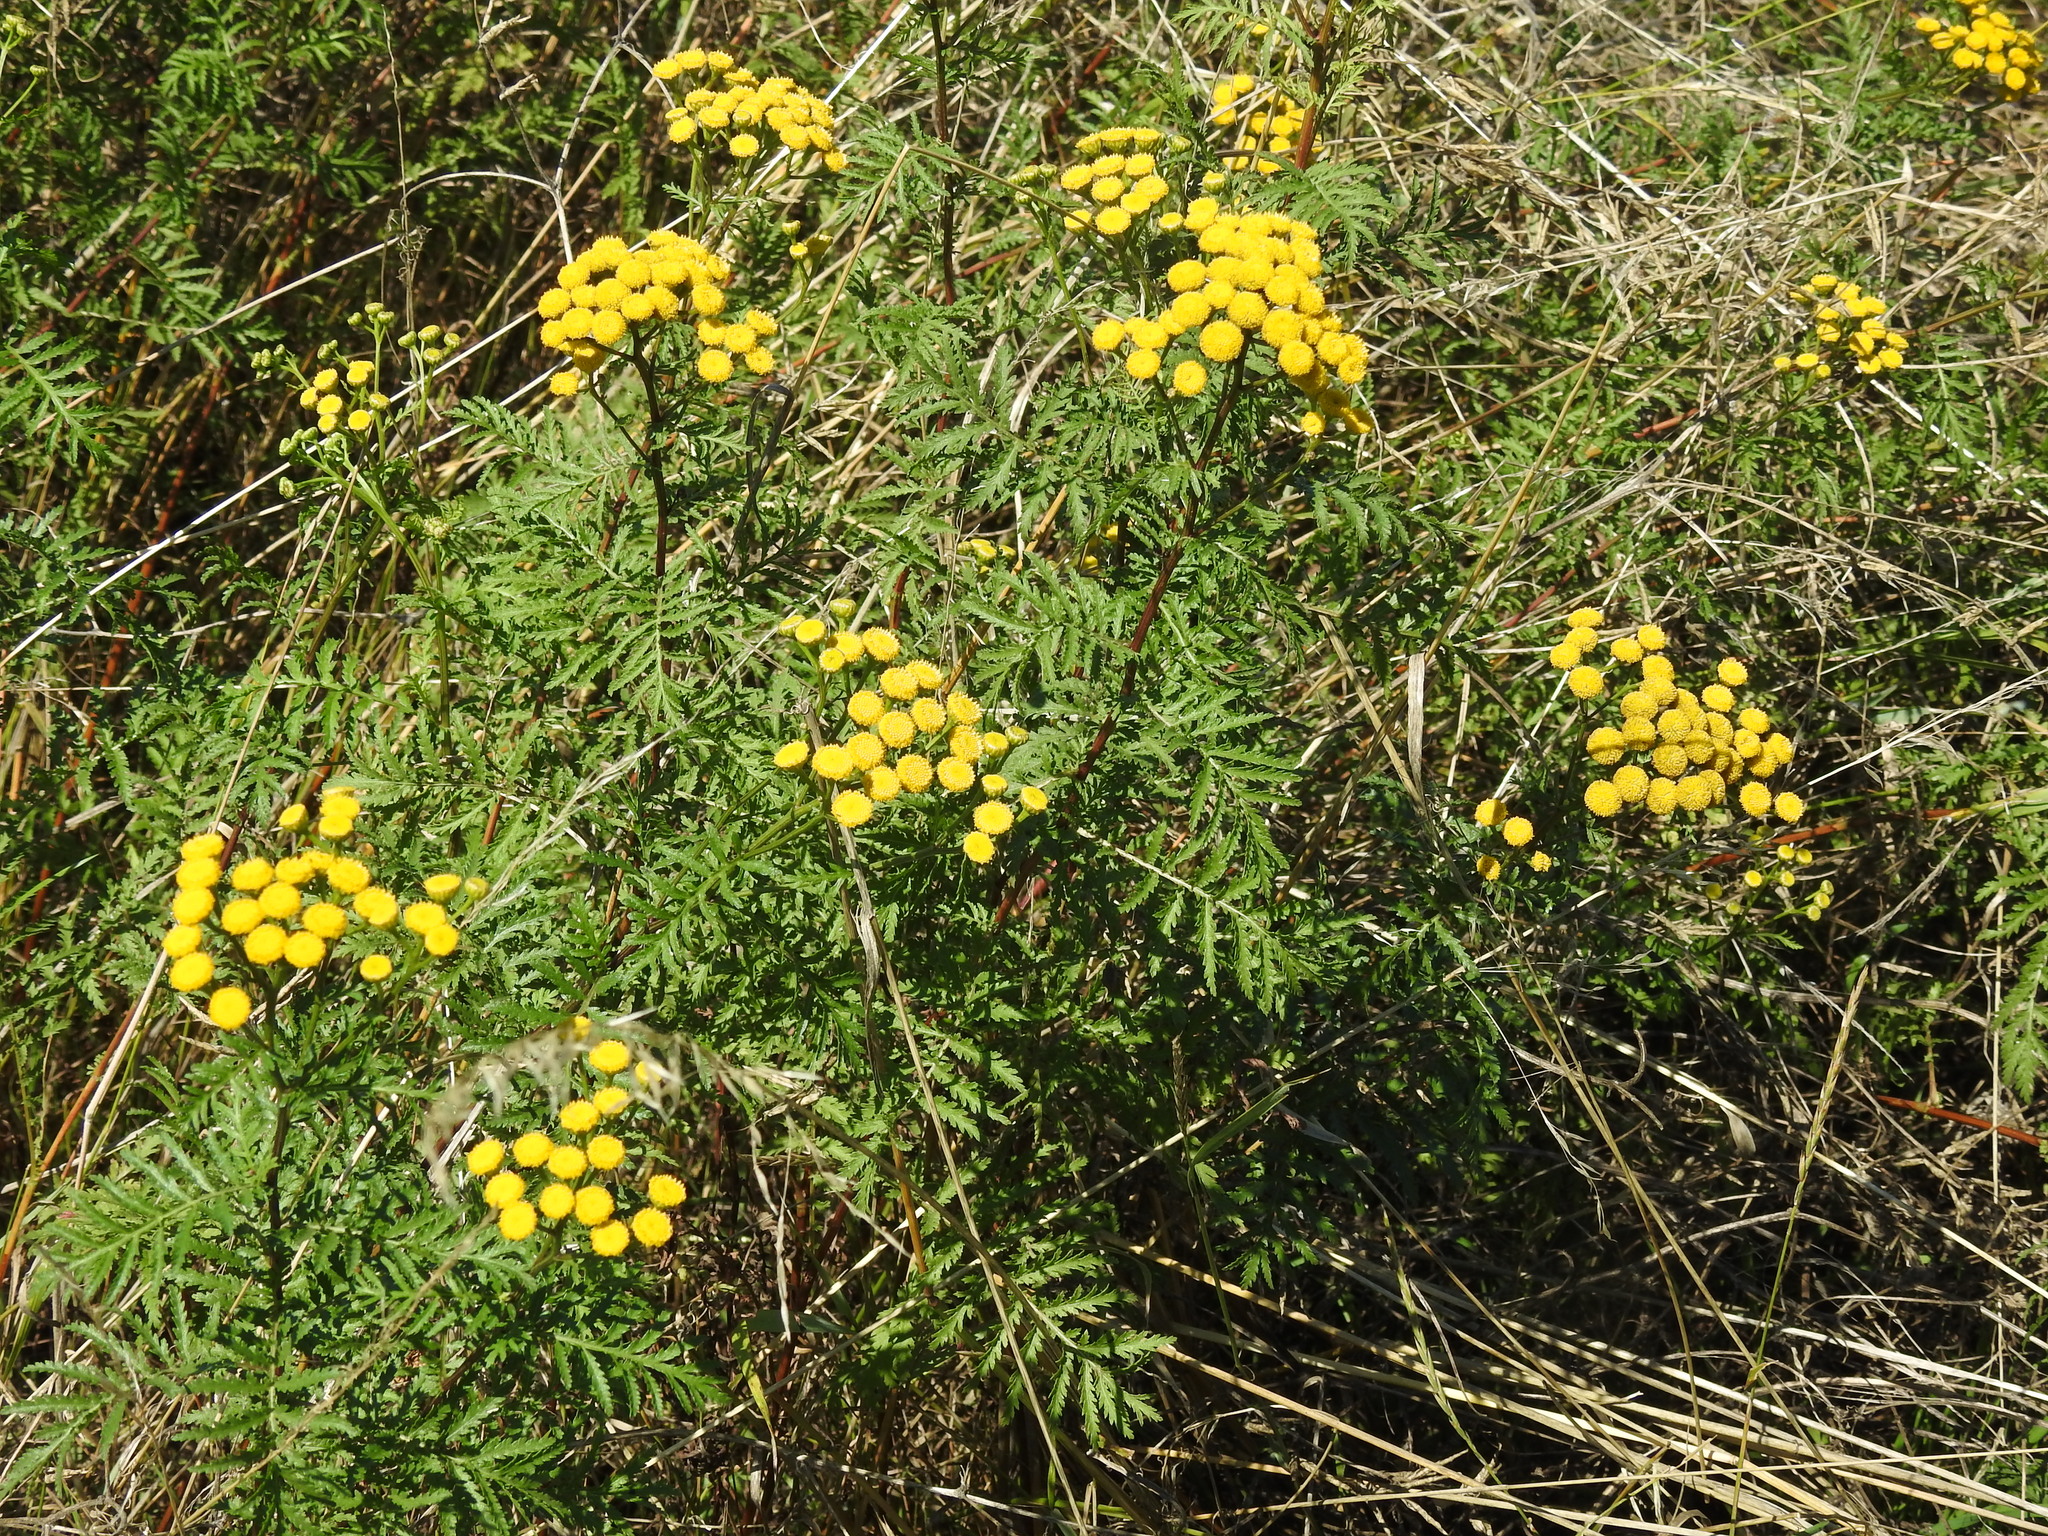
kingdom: Plantae
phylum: Tracheophyta
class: Magnoliopsida
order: Asterales
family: Asteraceae
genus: Tanacetum
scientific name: Tanacetum vulgare
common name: Common tansy
